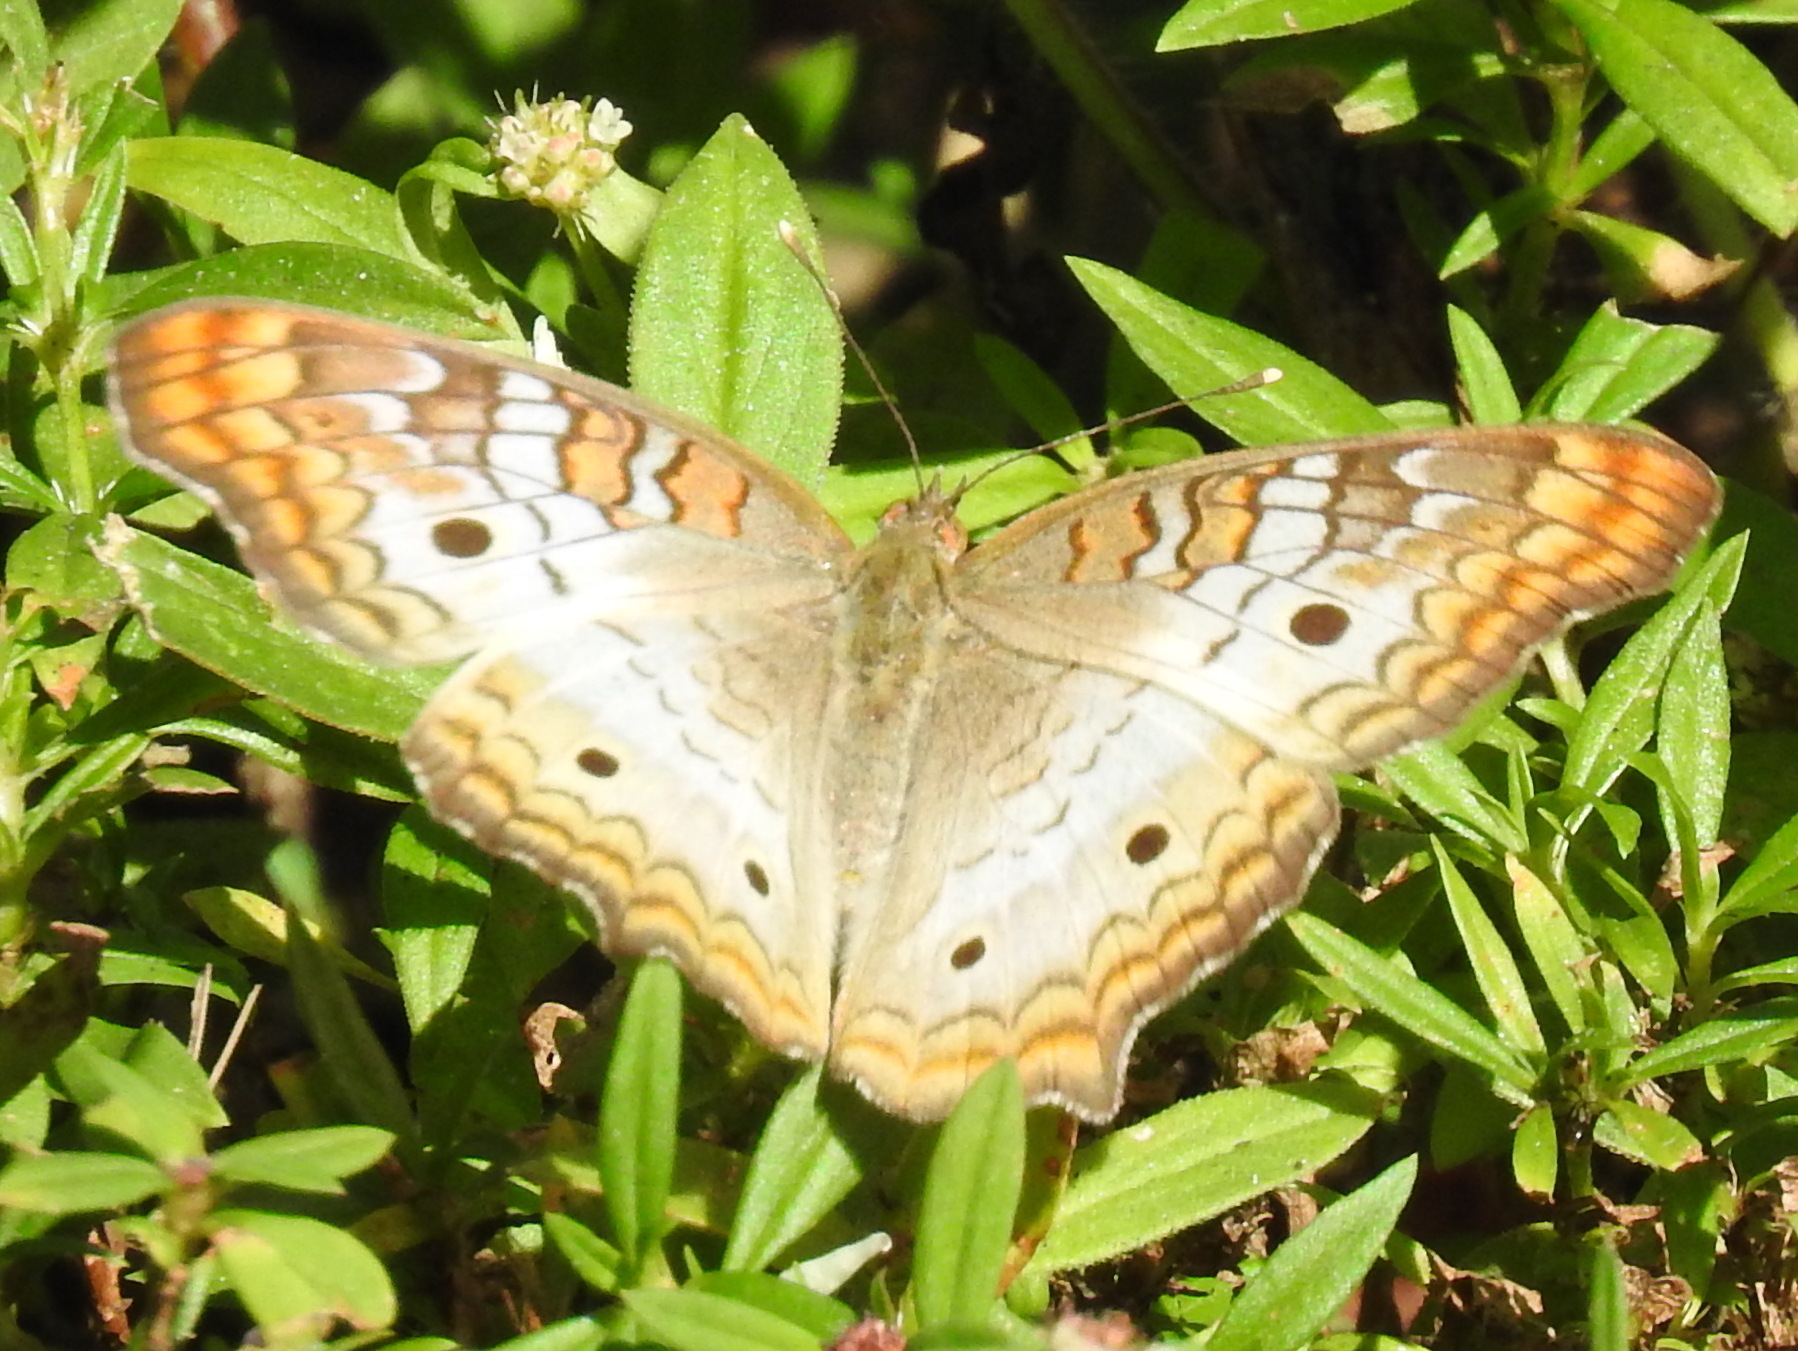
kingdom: Animalia
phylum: Arthropoda
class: Insecta
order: Lepidoptera
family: Nymphalidae
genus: Anartia
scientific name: Anartia jatrophae
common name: White peacock
